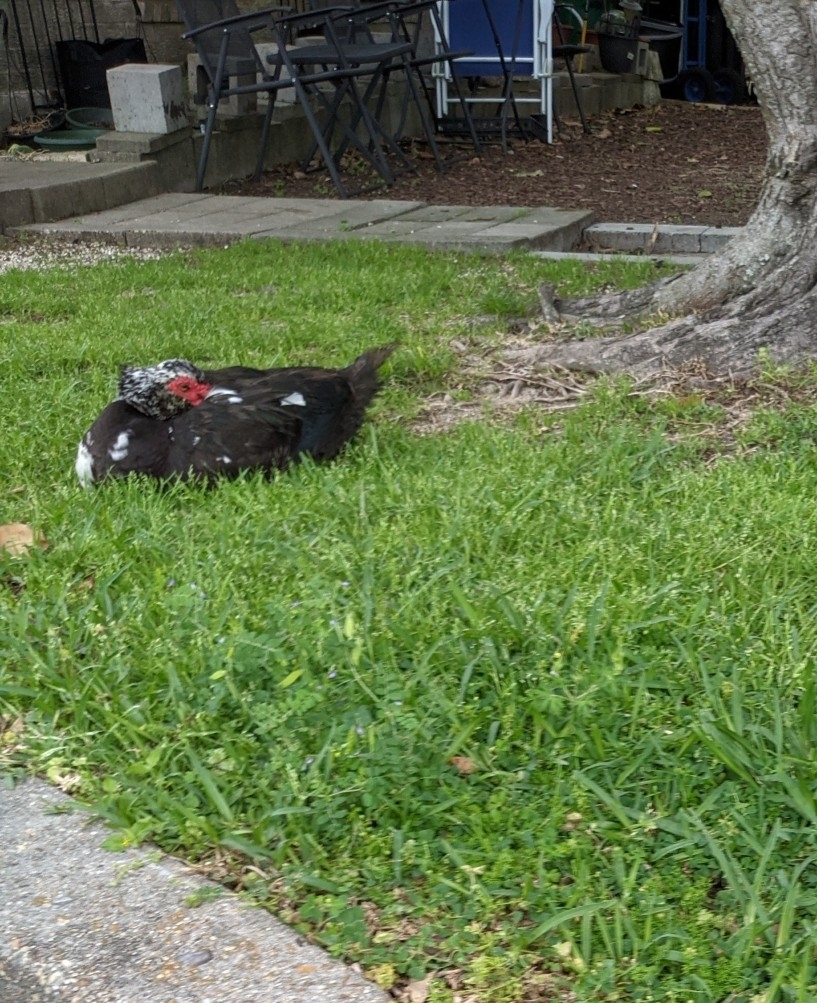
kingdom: Animalia
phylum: Chordata
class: Aves
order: Anseriformes
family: Anatidae
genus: Cairina
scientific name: Cairina moschata
